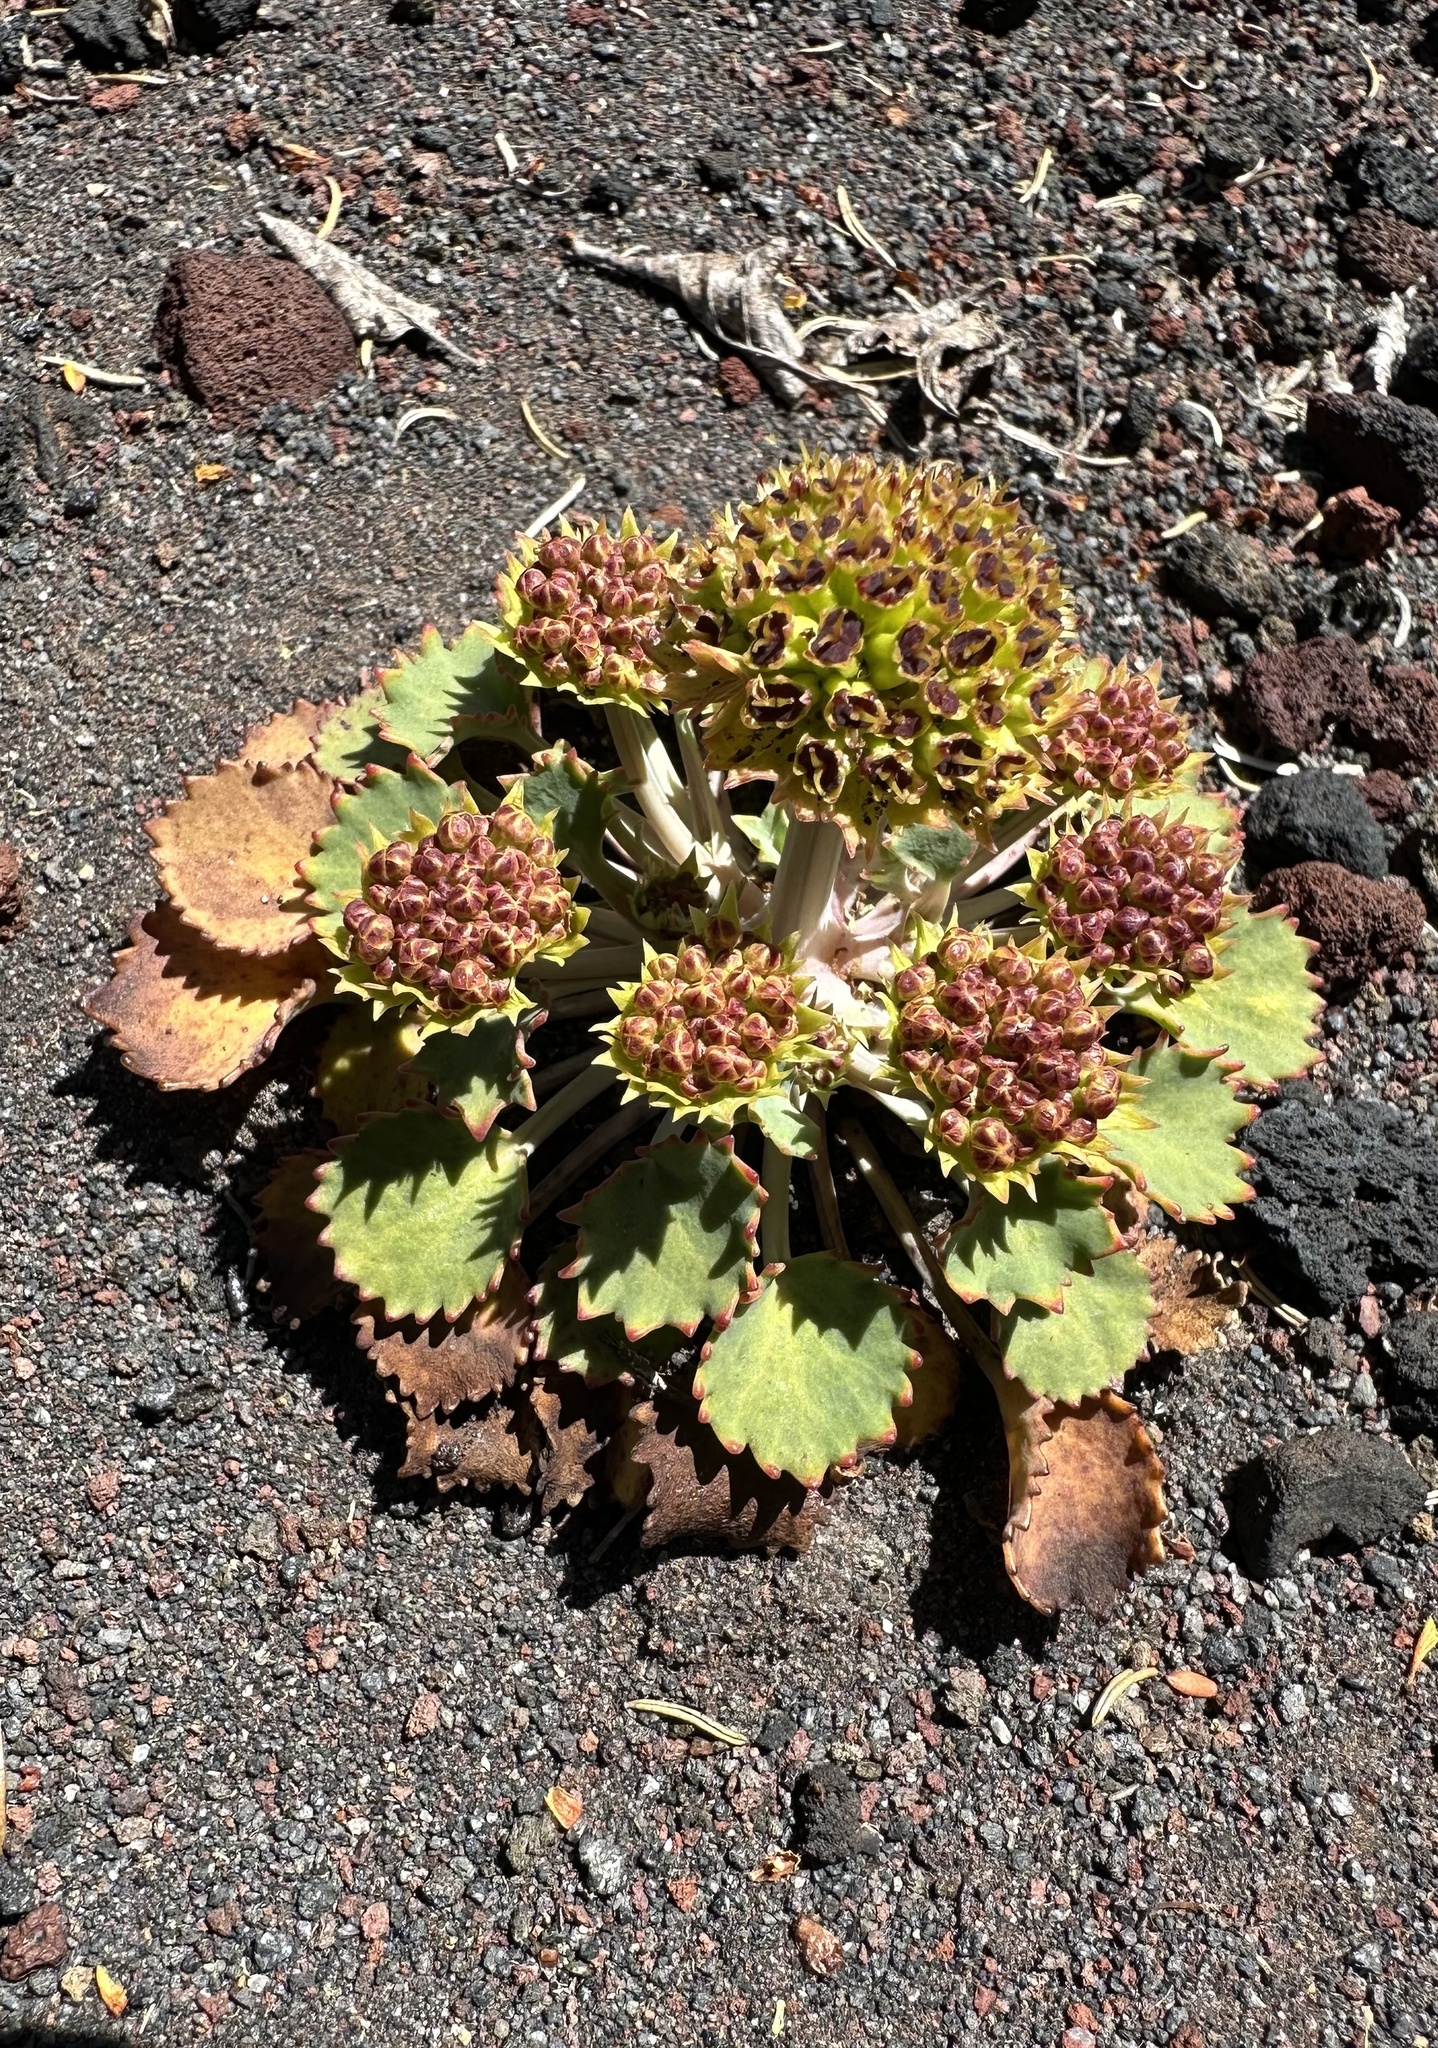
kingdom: Plantae
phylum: Tracheophyta
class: Magnoliopsida
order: Apiales
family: Apiaceae
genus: Pozoa
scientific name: Pozoa volcanica
